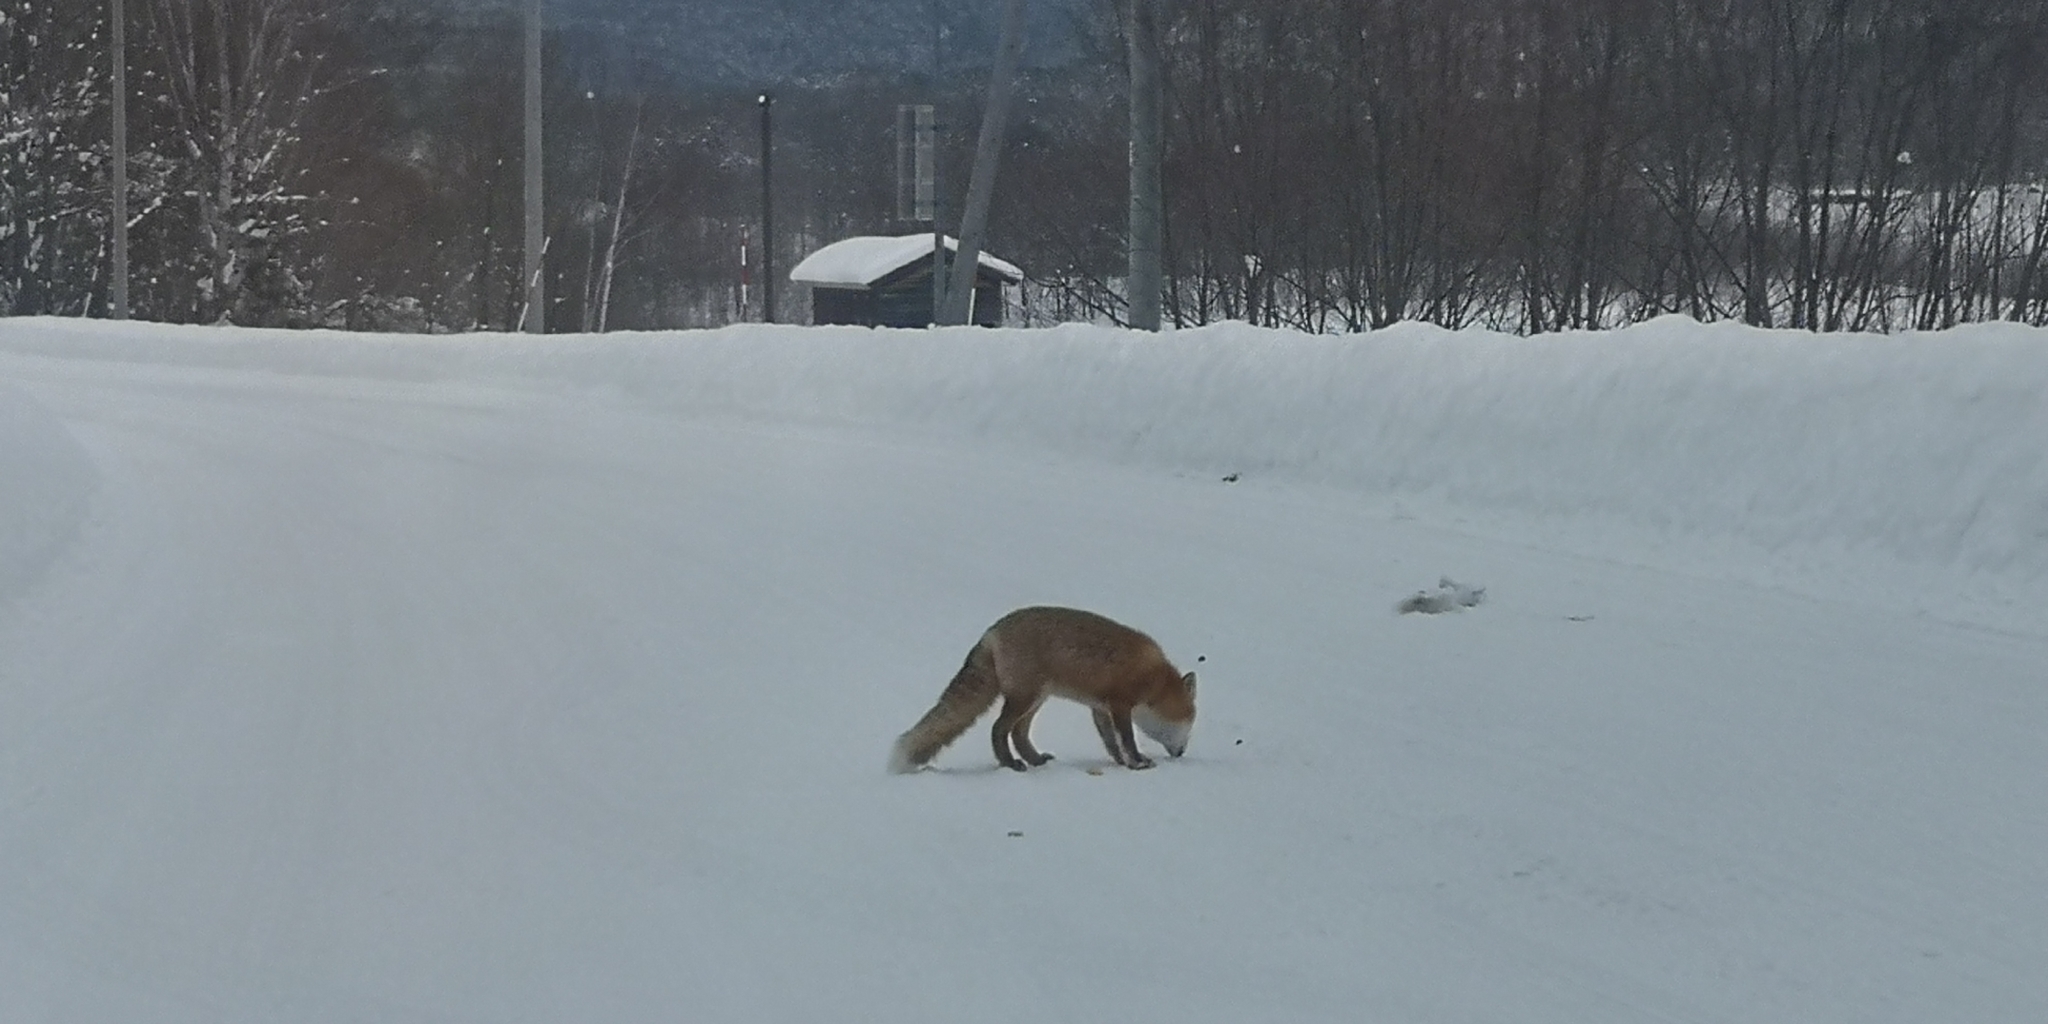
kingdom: Animalia
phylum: Chordata
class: Mammalia
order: Carnivora
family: Canidae
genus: Vulpes
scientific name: Vulpes vulpes
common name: Red fox
